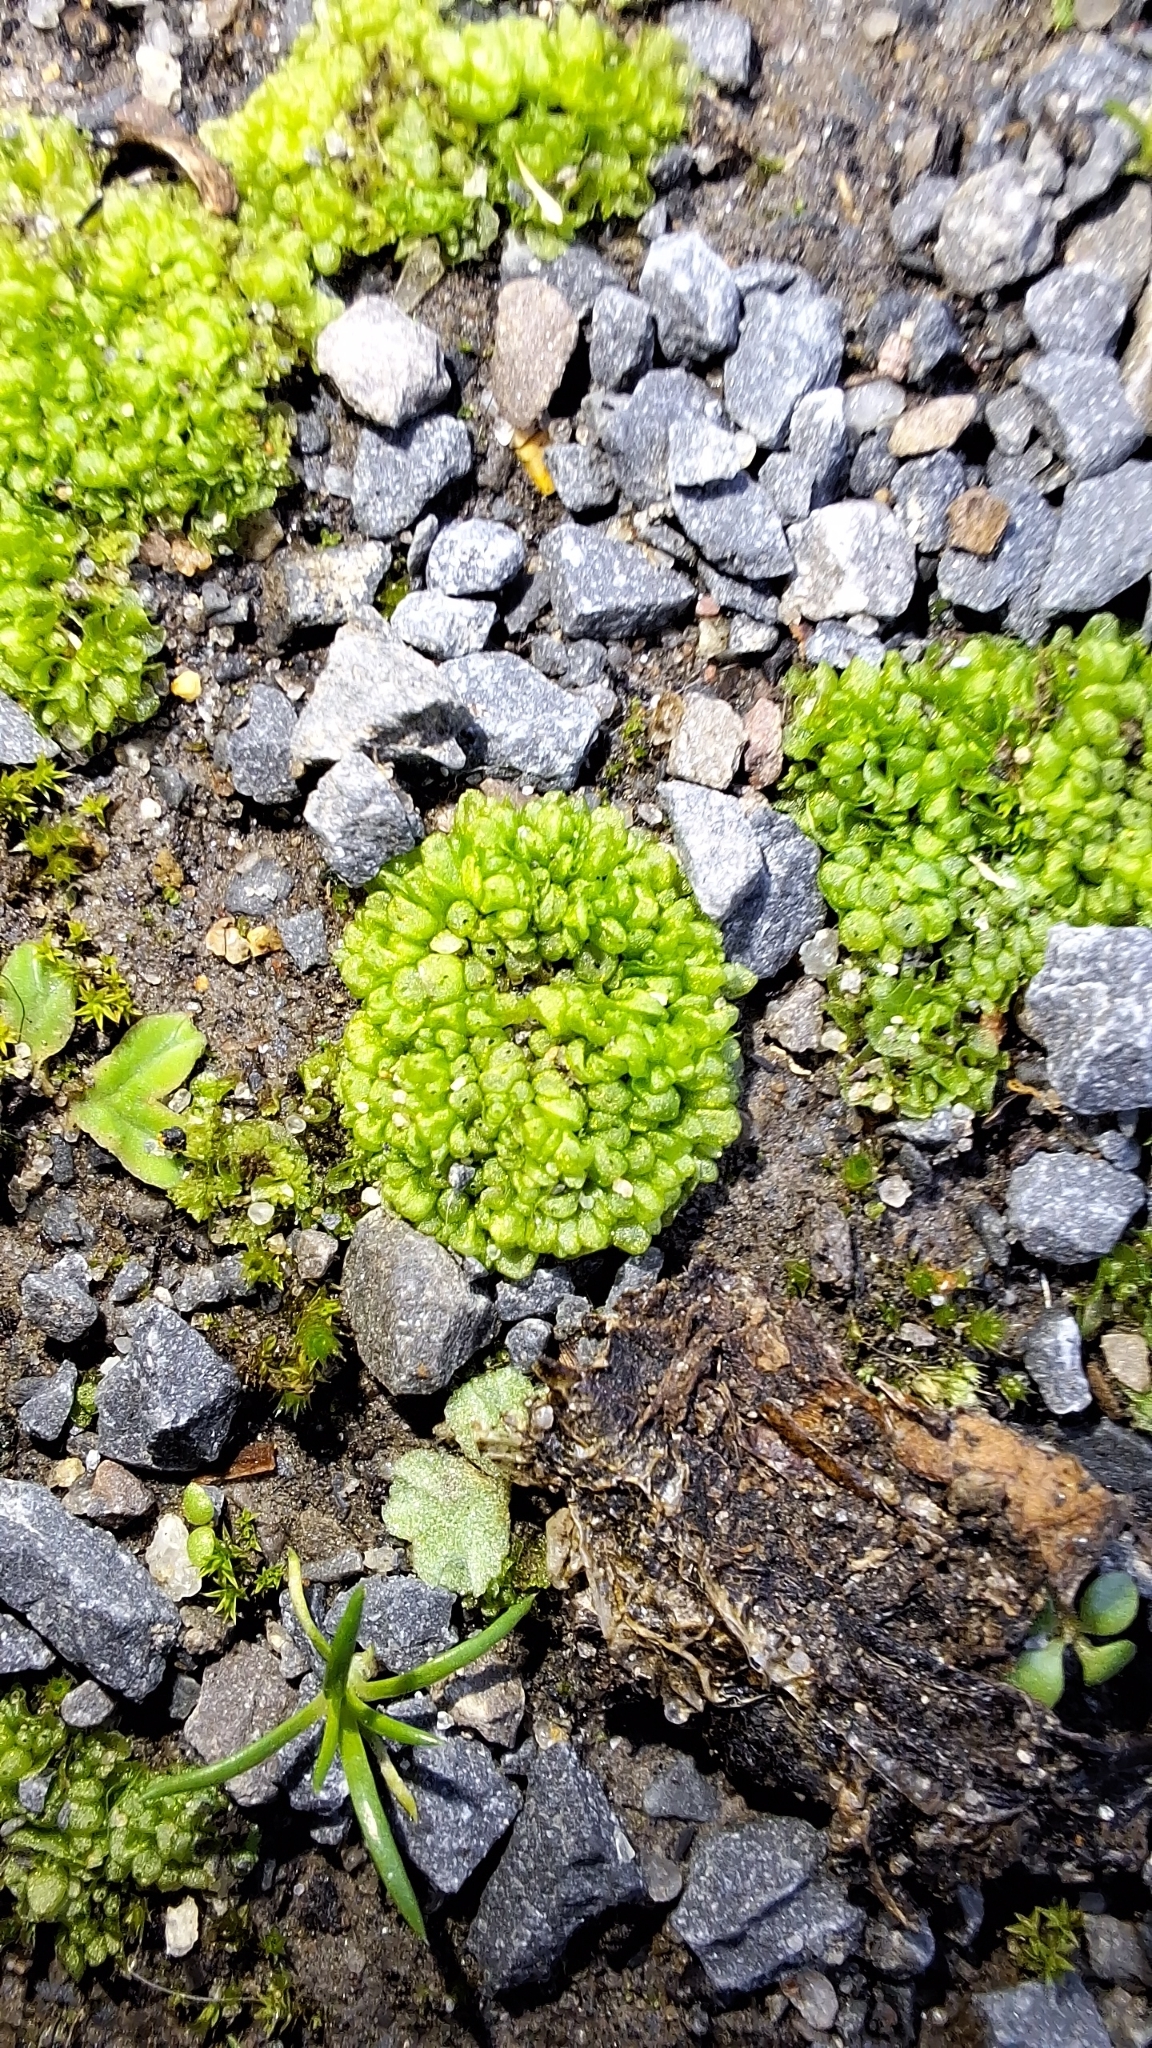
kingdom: Plantae
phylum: Marchantiophyta
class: Marchantiopsida
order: Sphaerocarpales
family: Sphaerocarpaceae
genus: Sphaerocarpos
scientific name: Sphaerocarpos texanus
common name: Texas balloonwort
